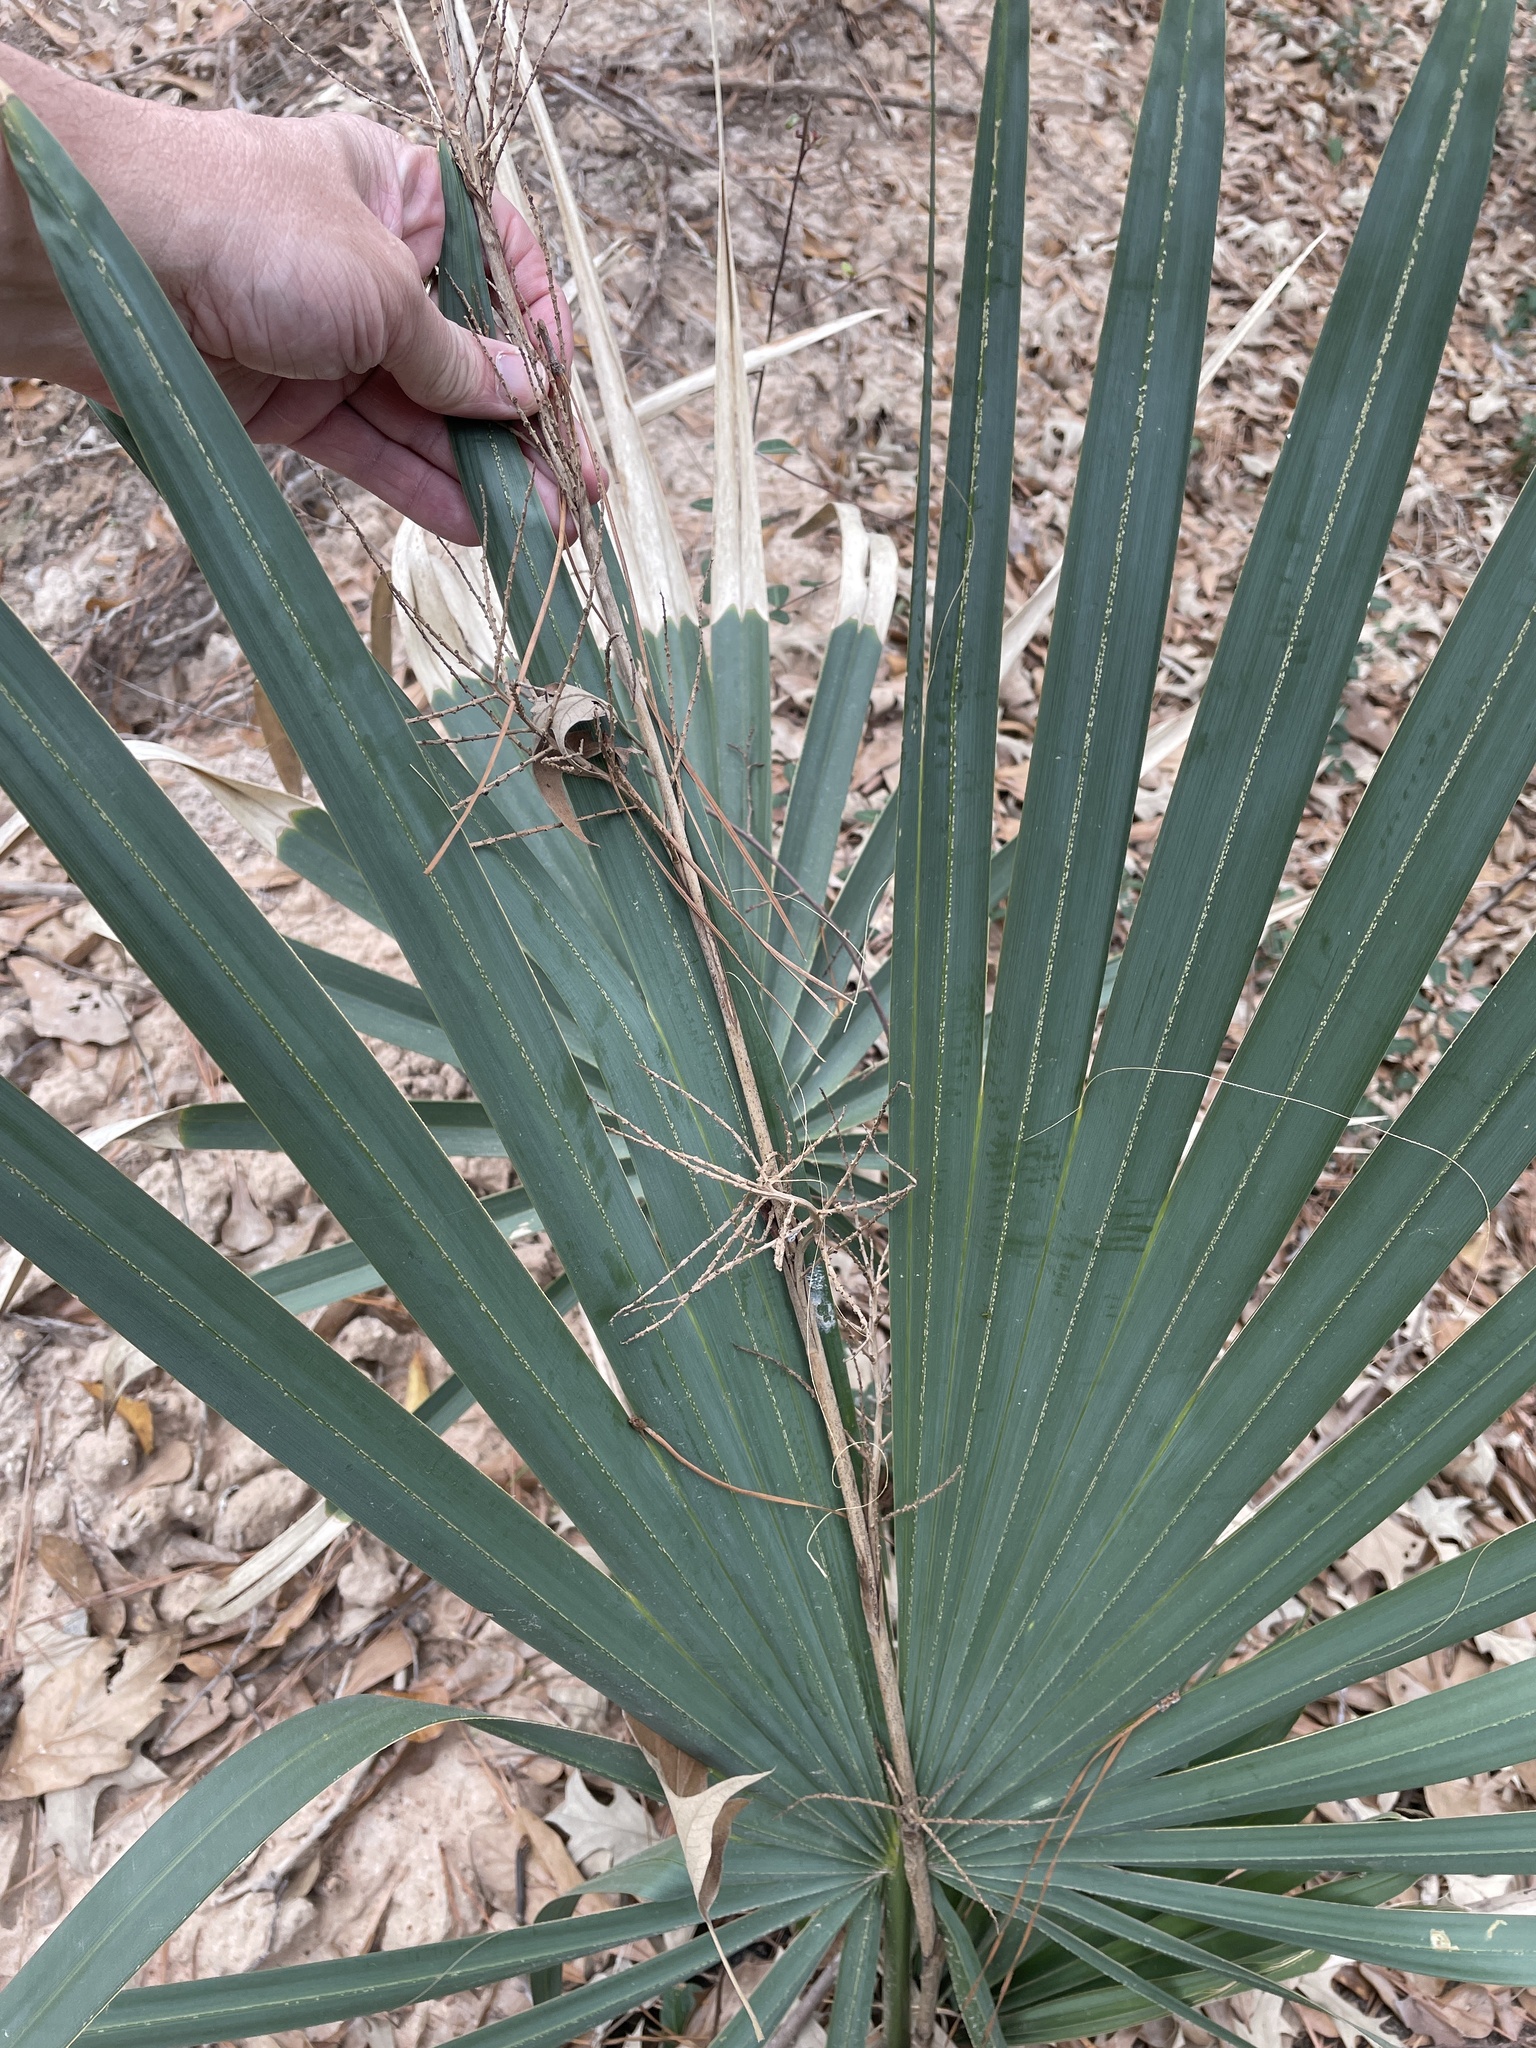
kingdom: Plantae
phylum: Tracheophyta
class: Liliopsida
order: Arecales
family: Arecaceae
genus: Sabal
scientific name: Sabal minor
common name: Dwarf palmetto
